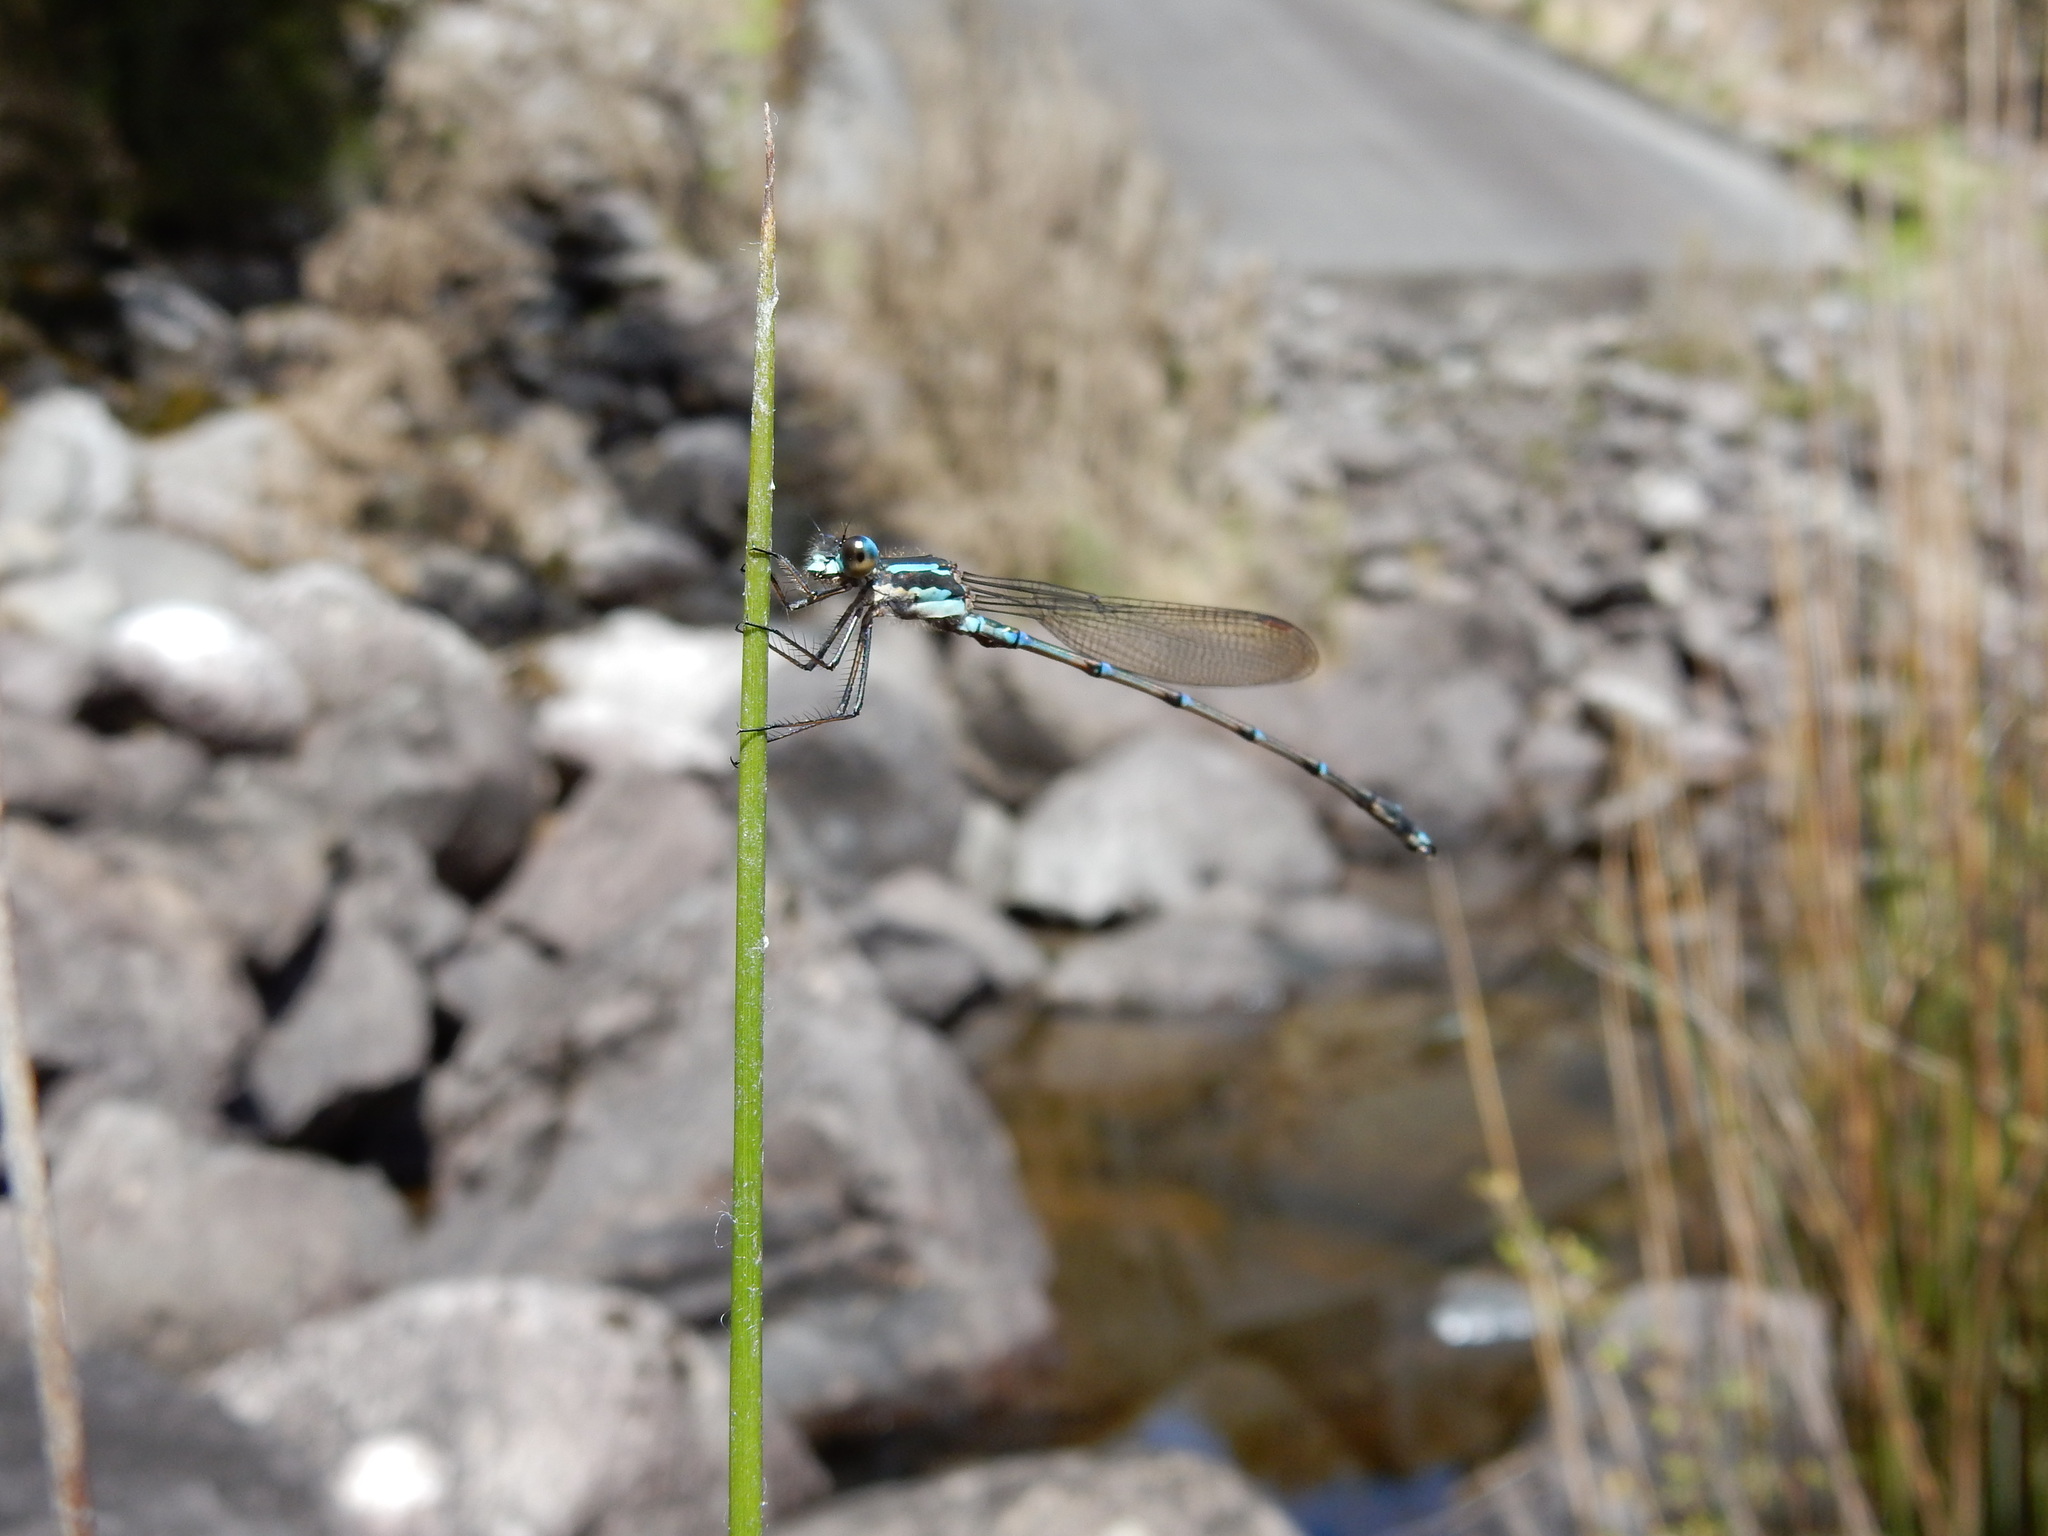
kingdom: Animalia
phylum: Arthropoda
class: Insecta
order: Odonata
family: Lestidae
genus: Austrolestes
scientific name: Austrolestes colensonis
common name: Blue damselfly
